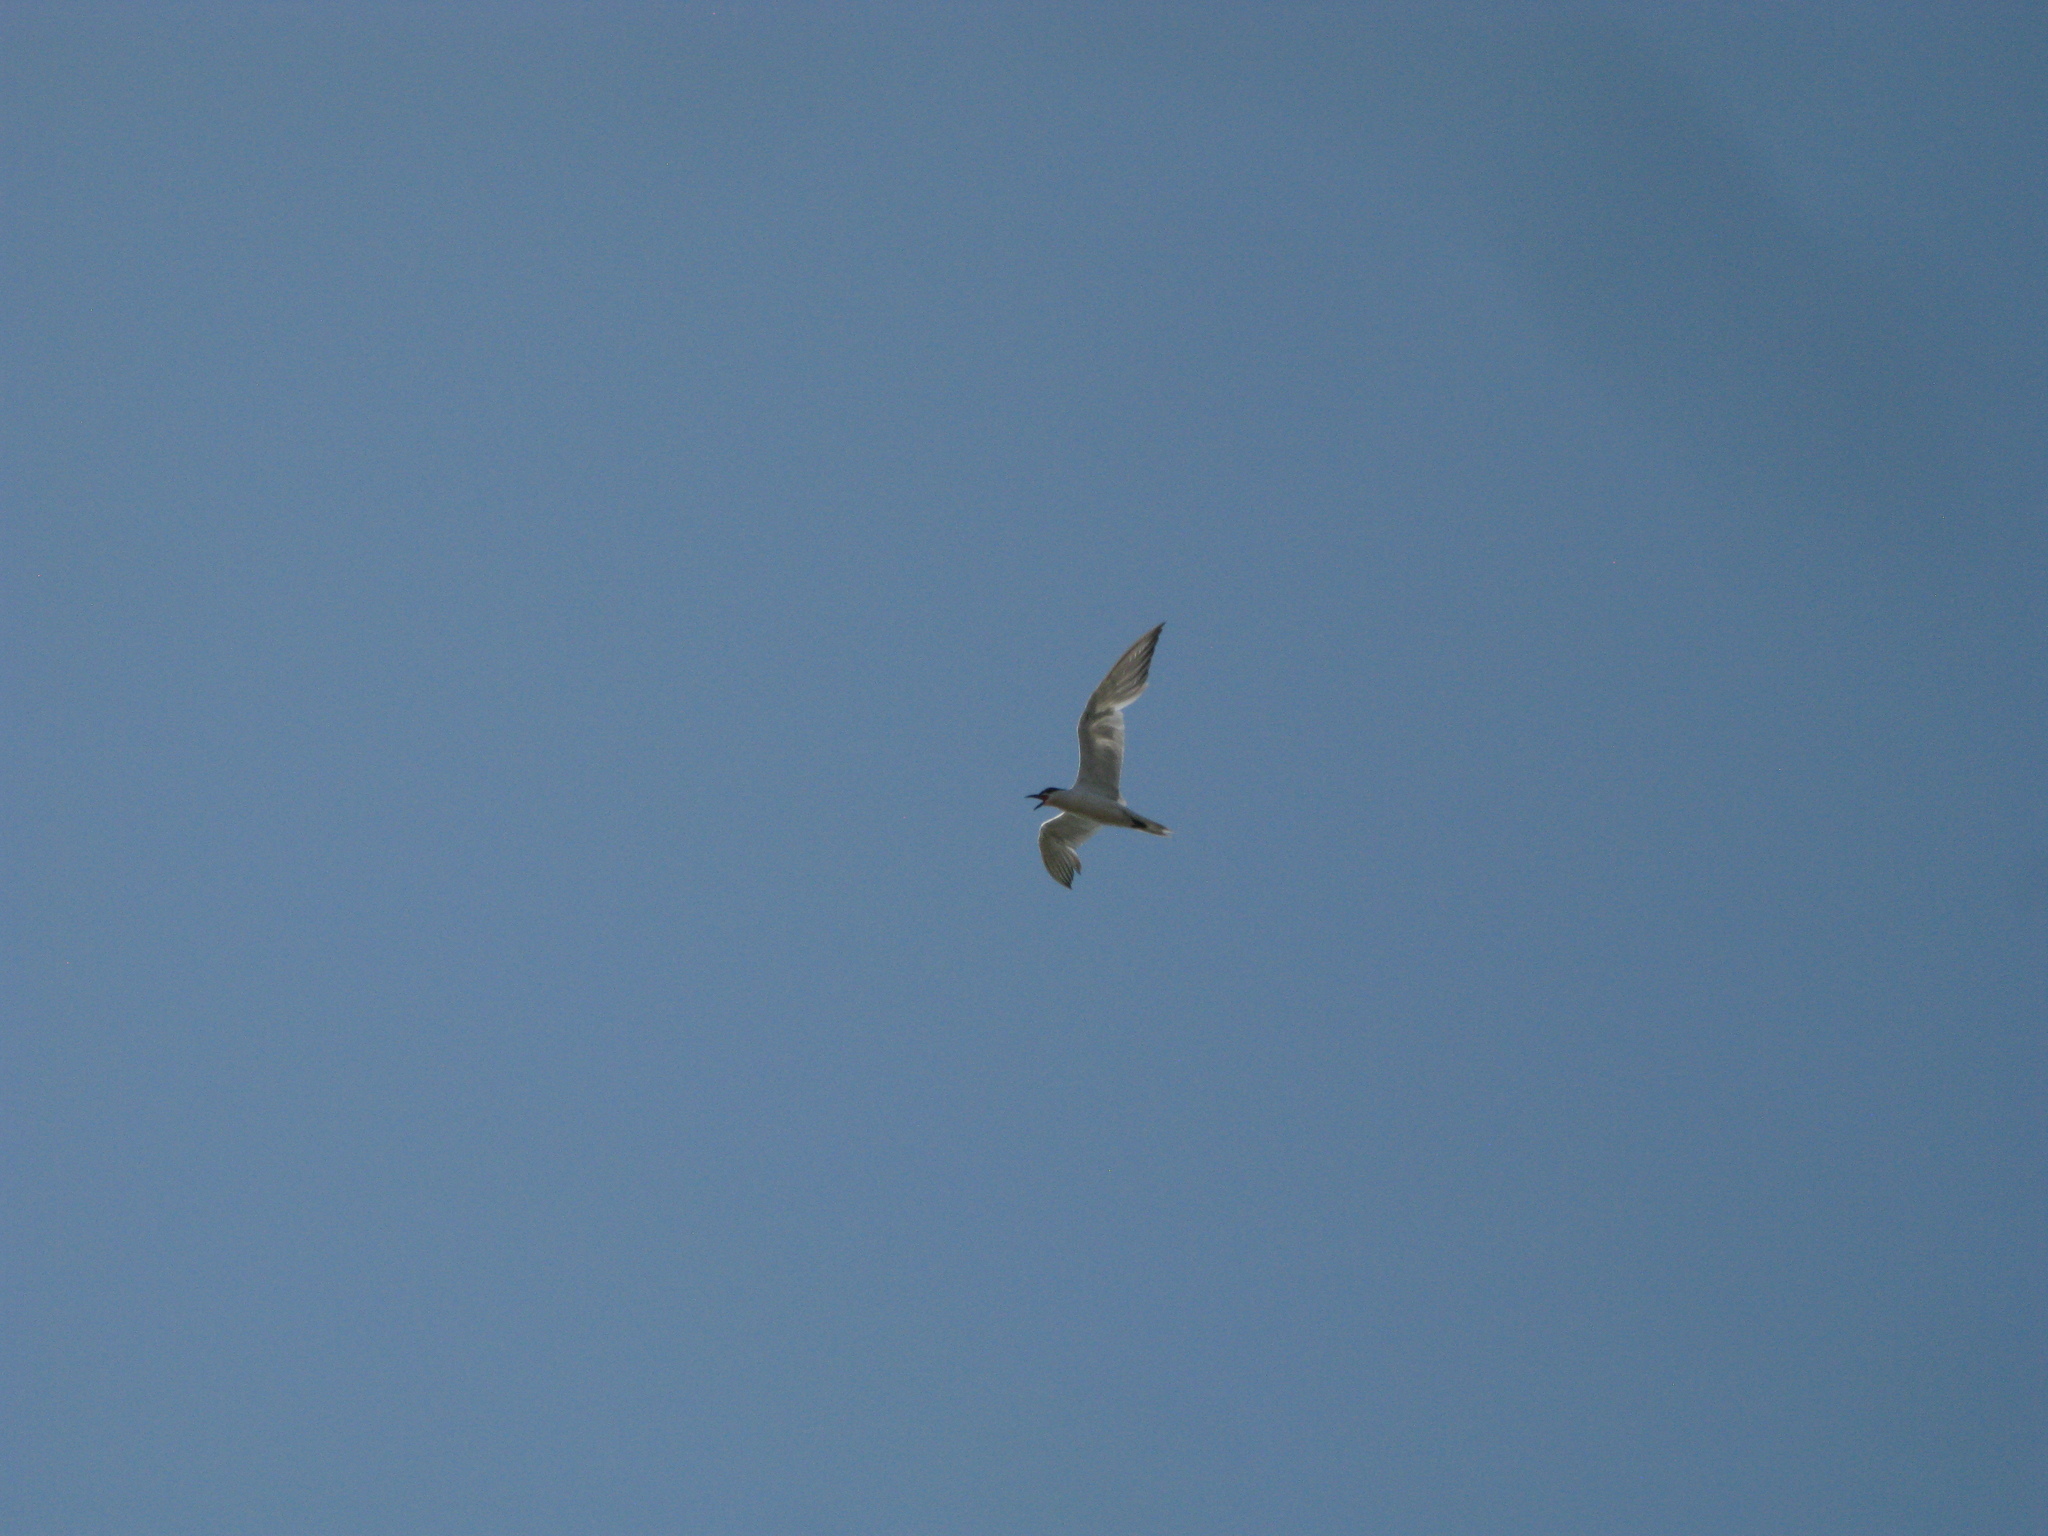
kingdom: Animalia
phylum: Chordata
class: Aves
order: Charadriiformes
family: Laridae
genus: Sterna
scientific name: Sterna hirundo
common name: Common tern
